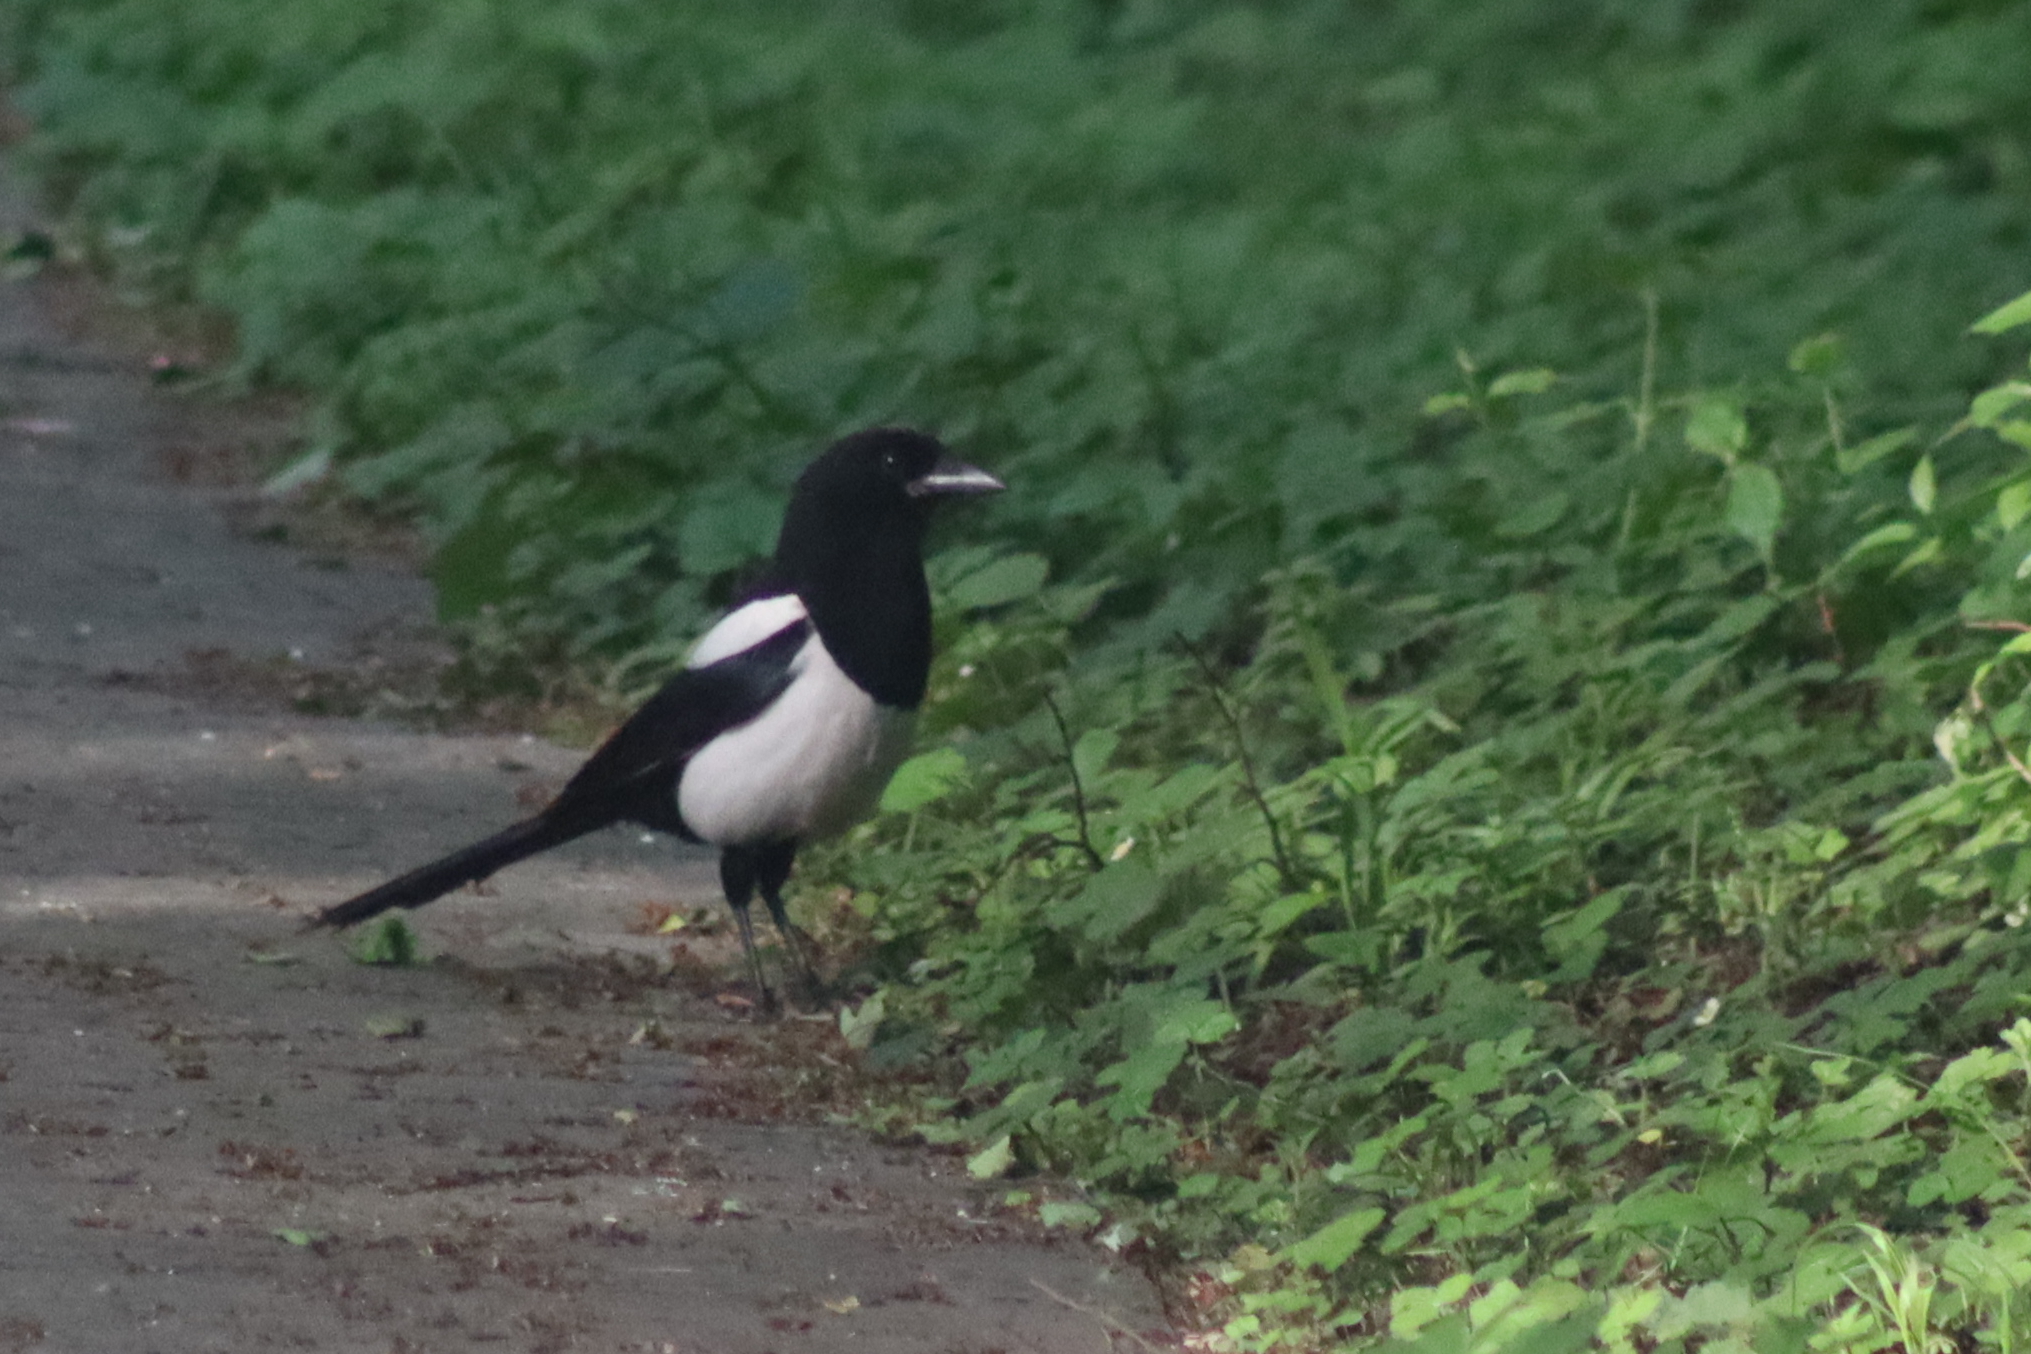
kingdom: Animalia
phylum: Chordata
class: Aves
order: Passeriformes
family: Corvidae
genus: Pica
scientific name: Pica pica
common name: Eurasian magpie
